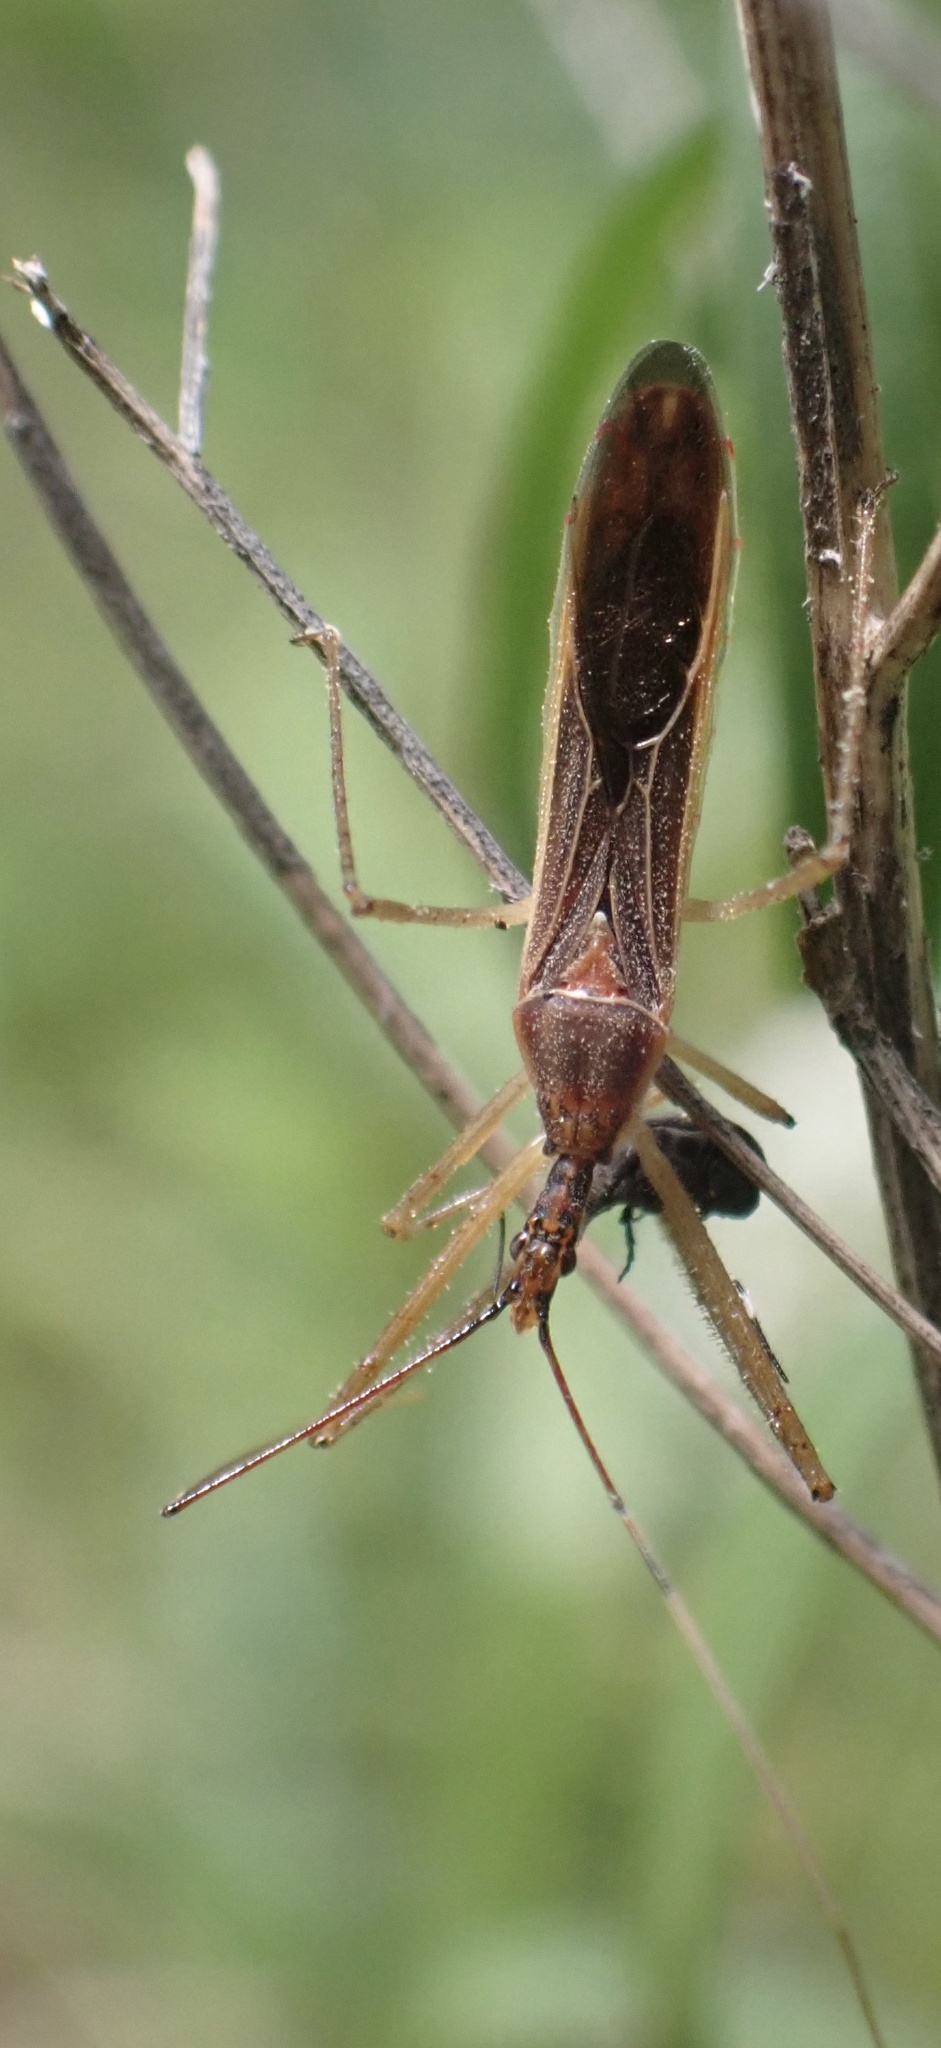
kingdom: Animalia
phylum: Arthropoda
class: Insecta
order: Hemiptera
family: Reduviidae
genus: Zelus
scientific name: Zelus cervicalis
